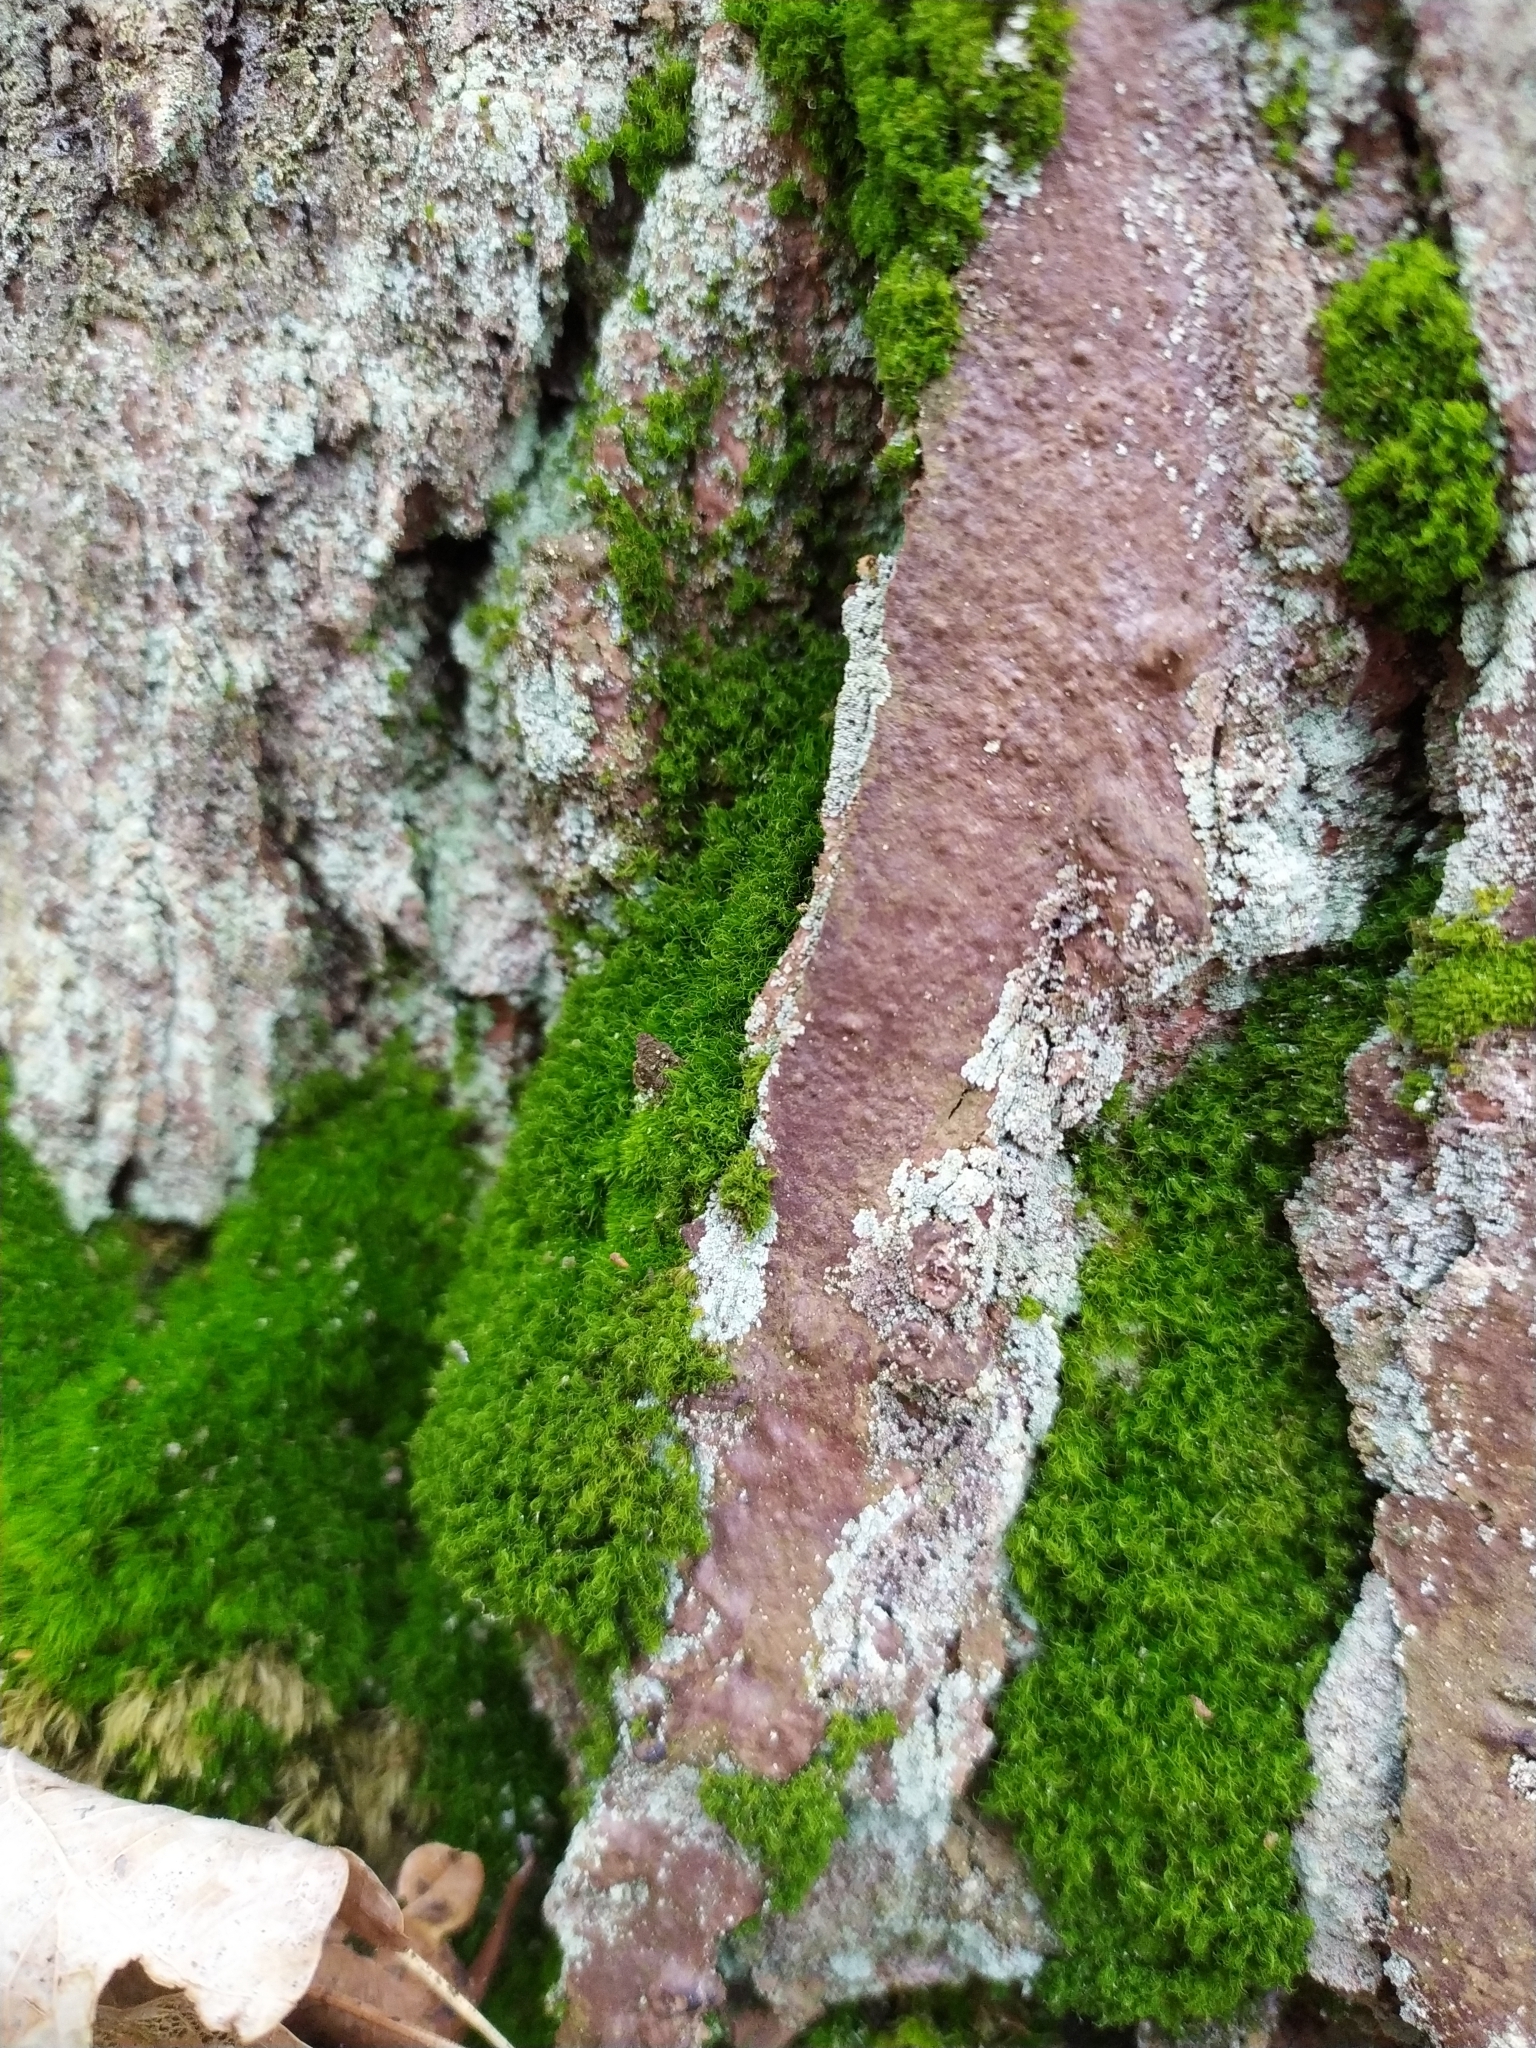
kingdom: Plantae
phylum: Bryophyta
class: Bryopsida
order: Dicranales
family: Dicranaceae
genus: Orthodicranum
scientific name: Orthodicranum montanum
